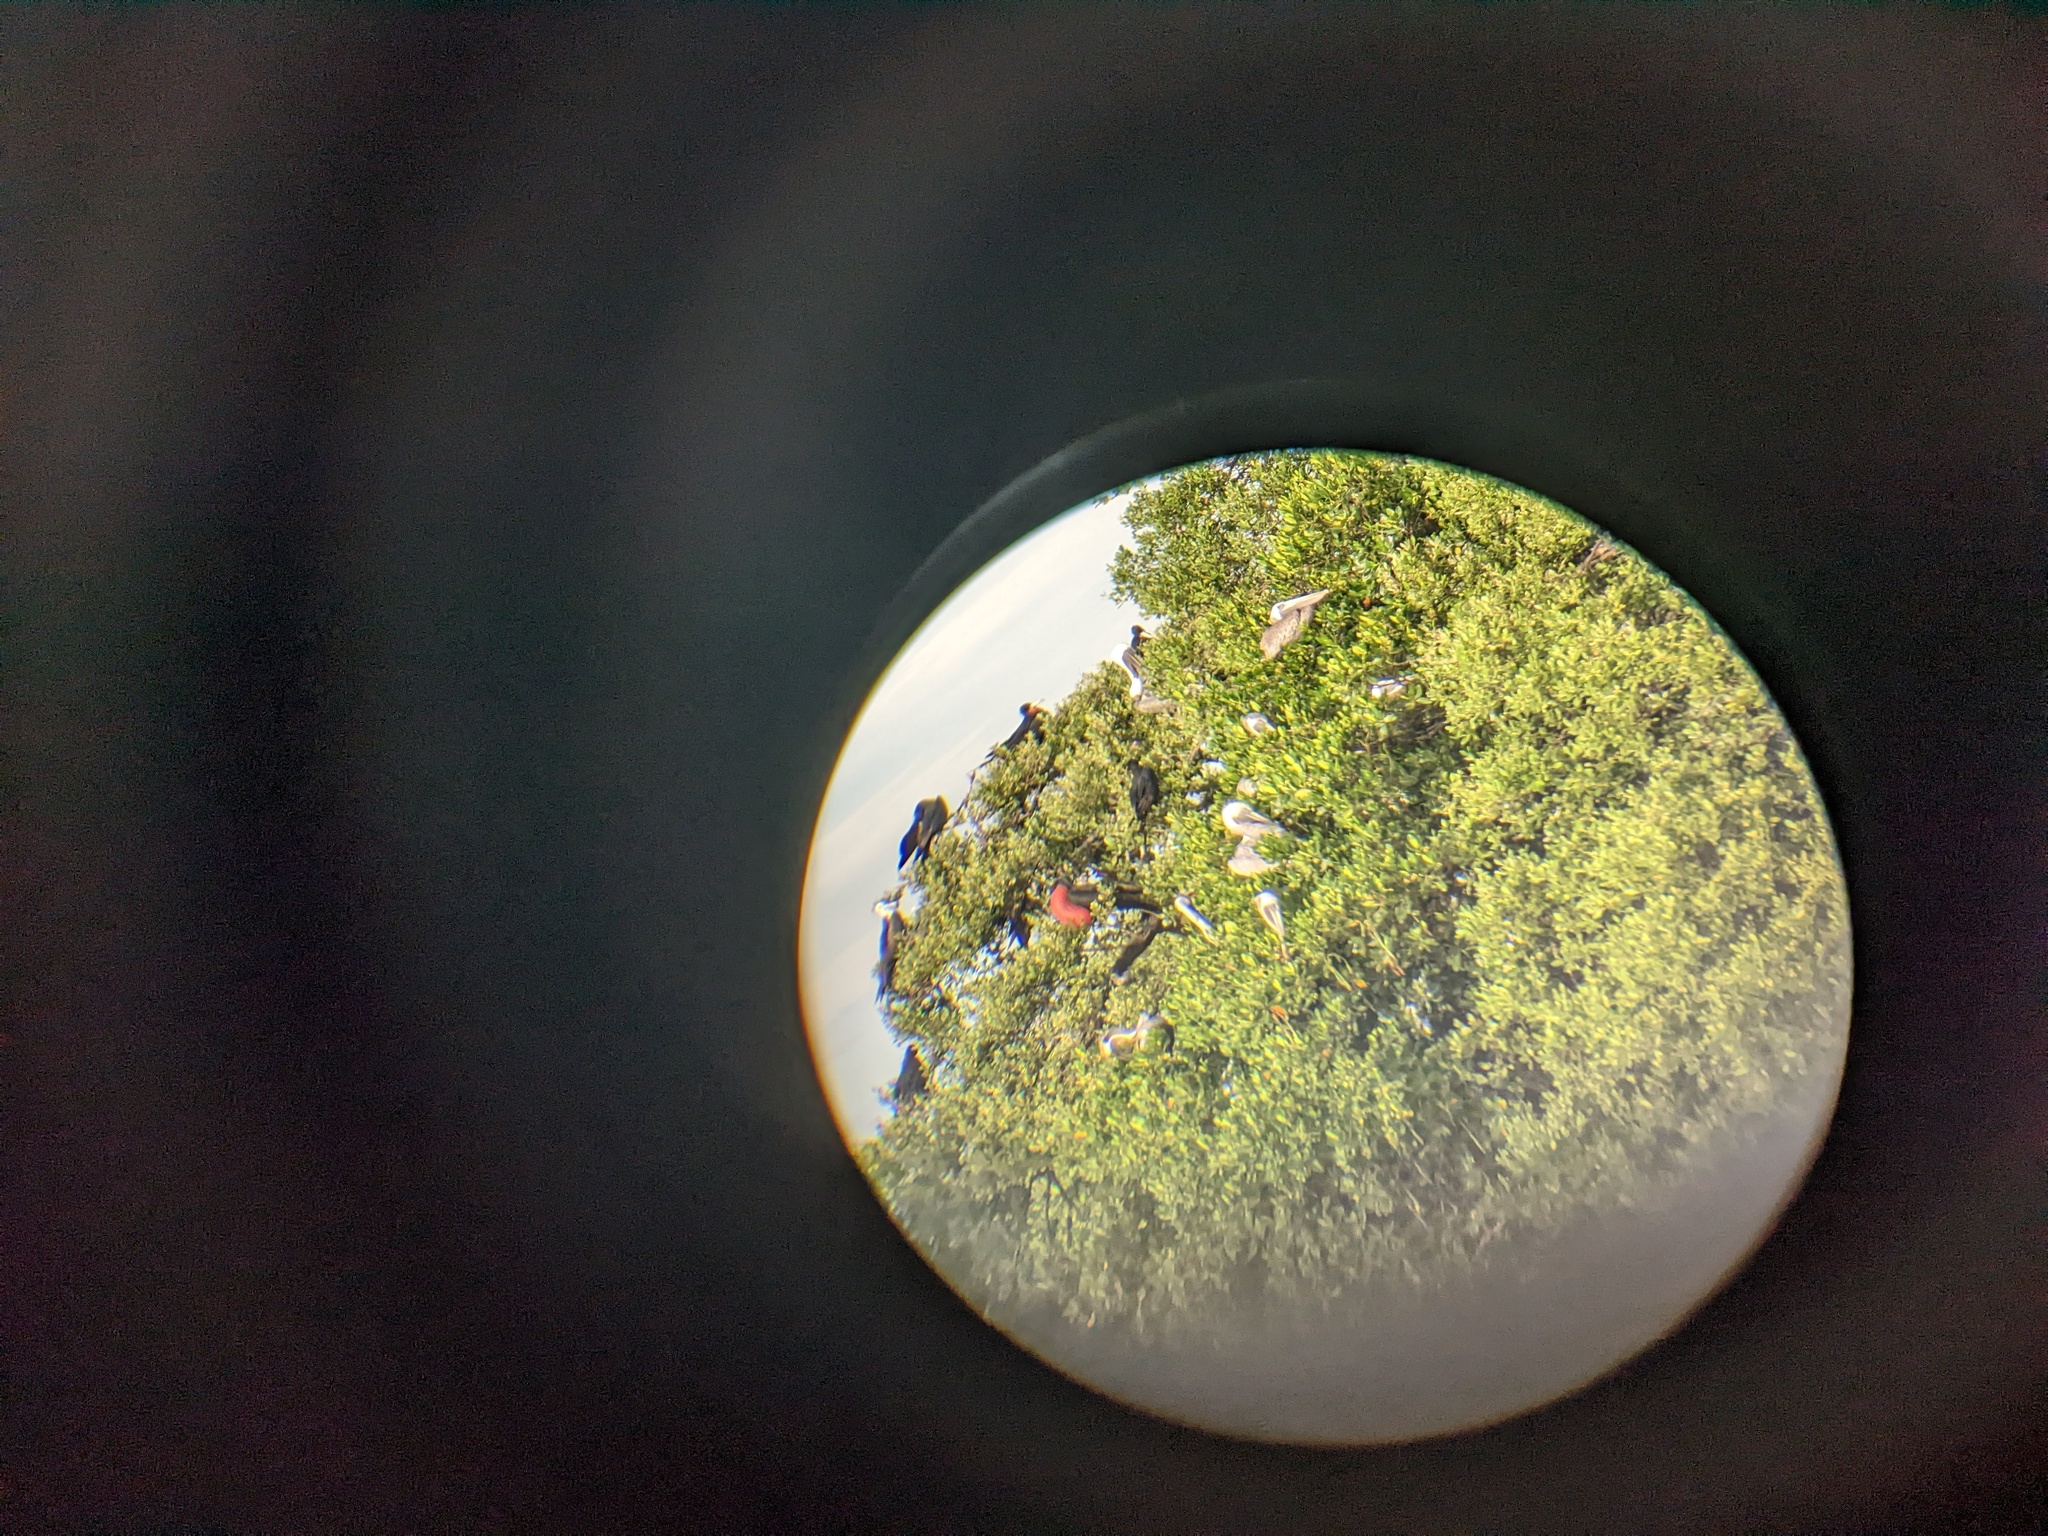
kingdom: Animalia
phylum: Chordata
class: Aves
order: Suliformes
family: Fregatidae
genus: Fregata
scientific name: Fregata magnificens
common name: Magnificent frigatebird
